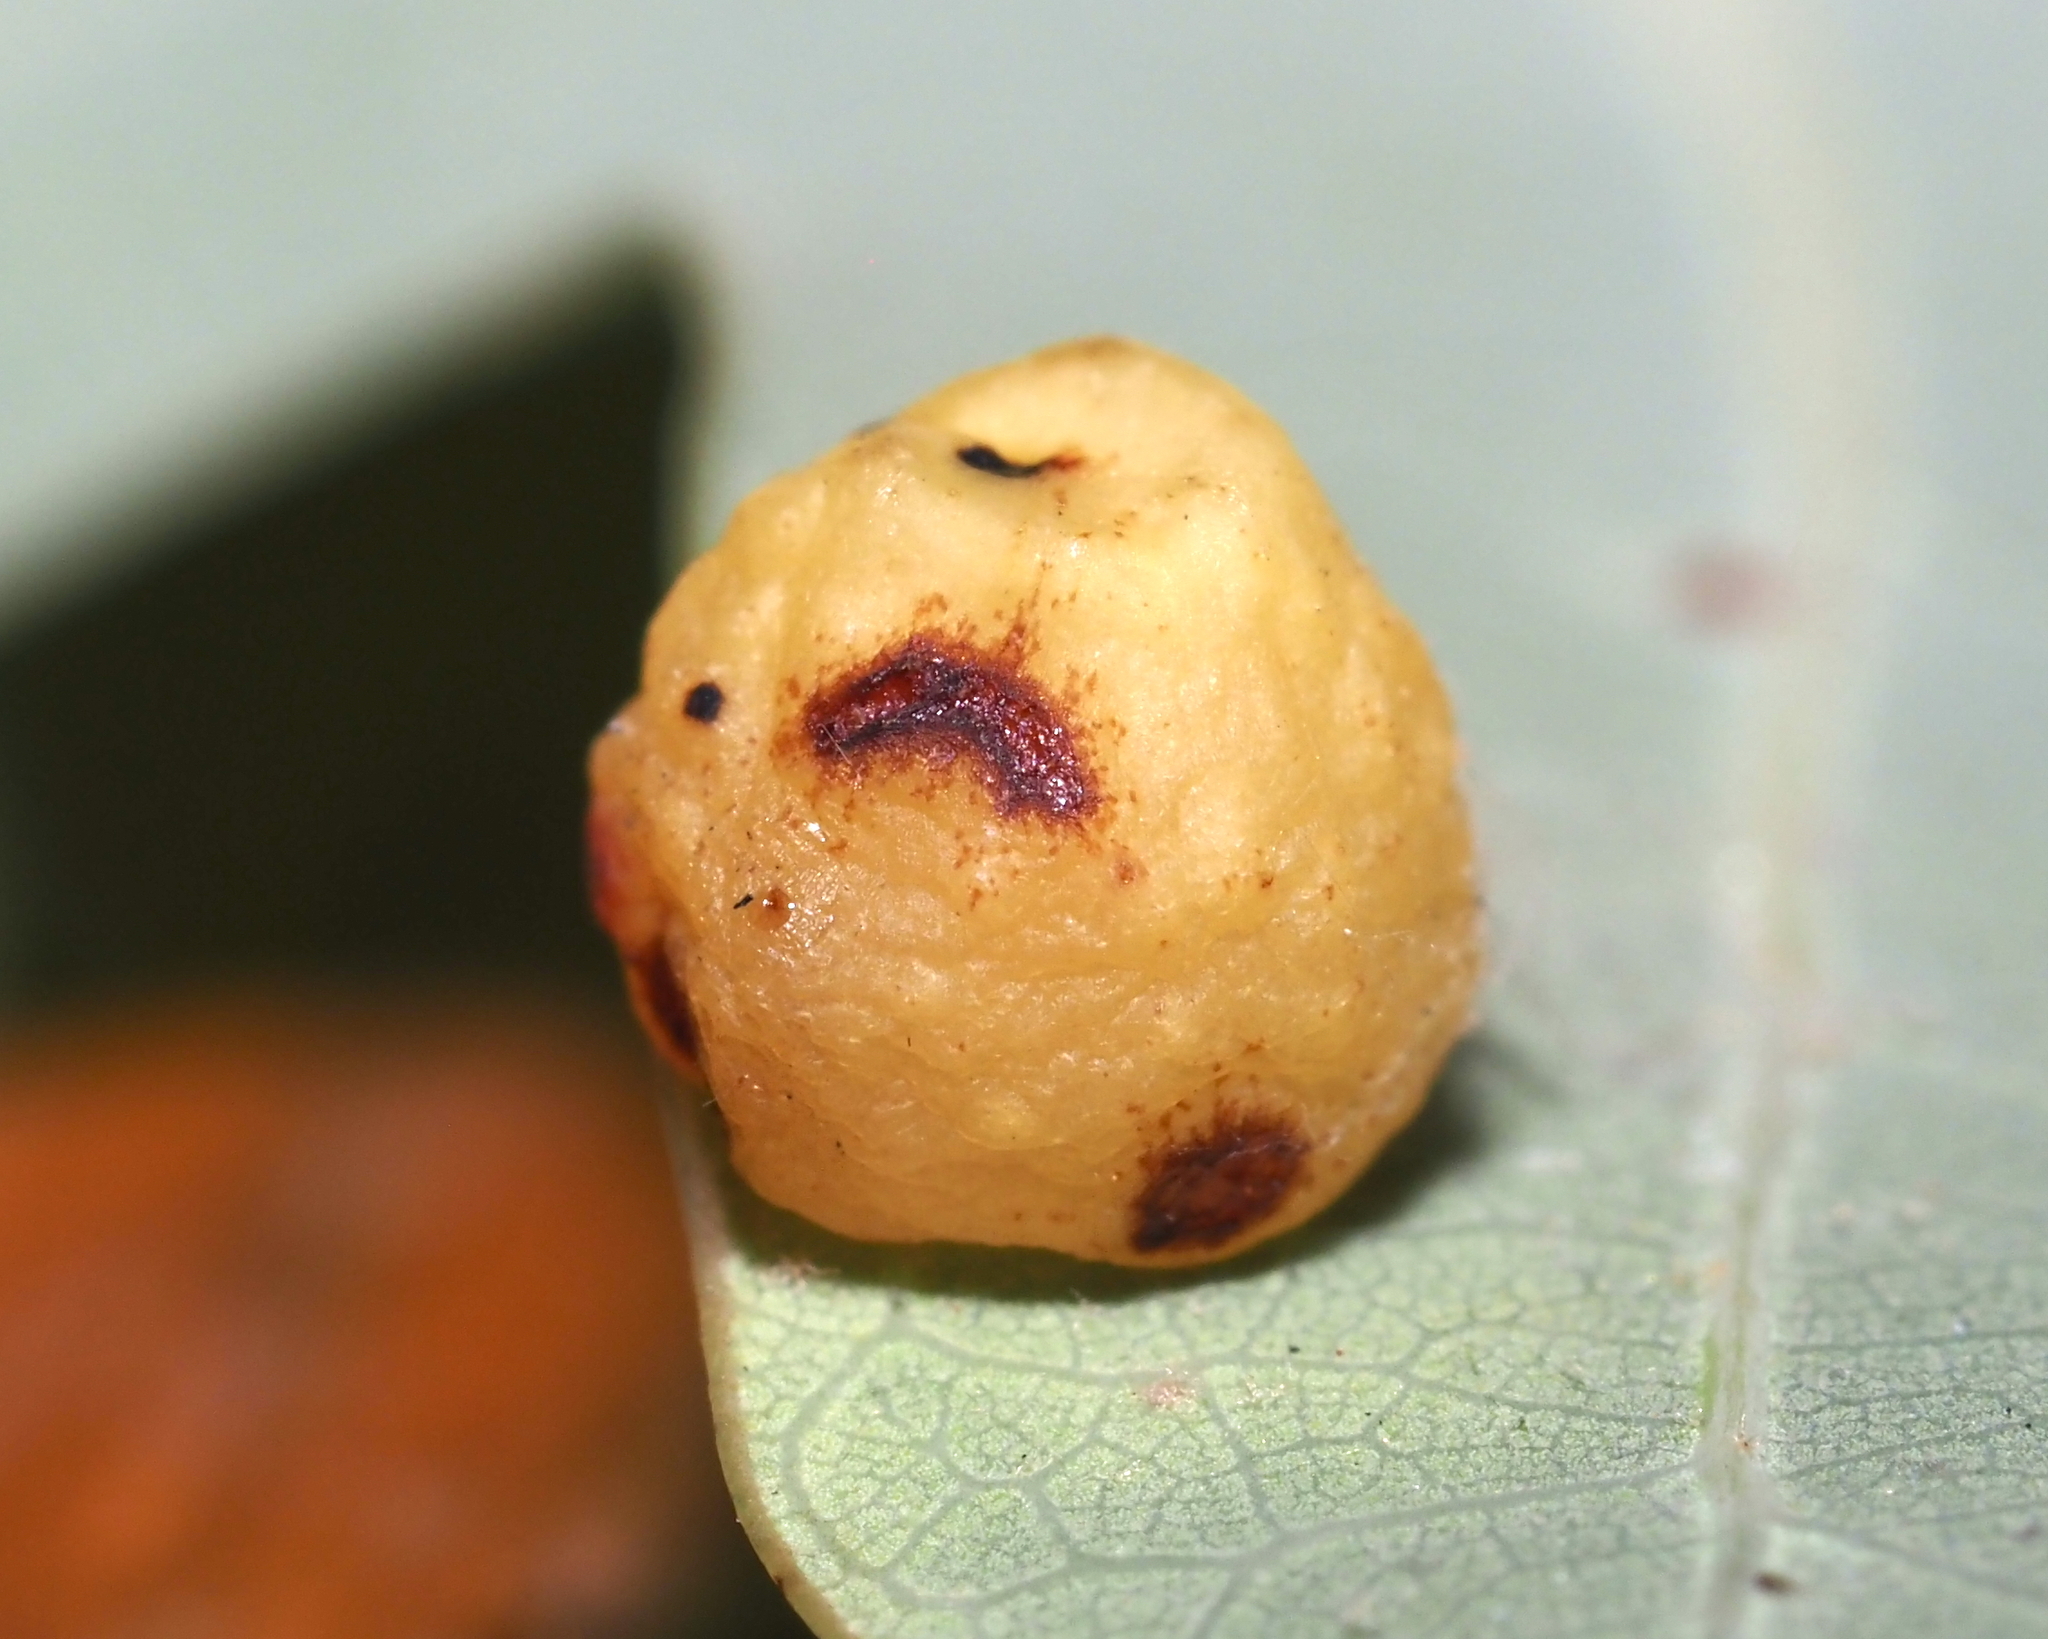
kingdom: Animalia
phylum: Arthropoda
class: Insecta
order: Hymenoptera
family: Cynipidae
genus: Andricus
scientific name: Andricus
